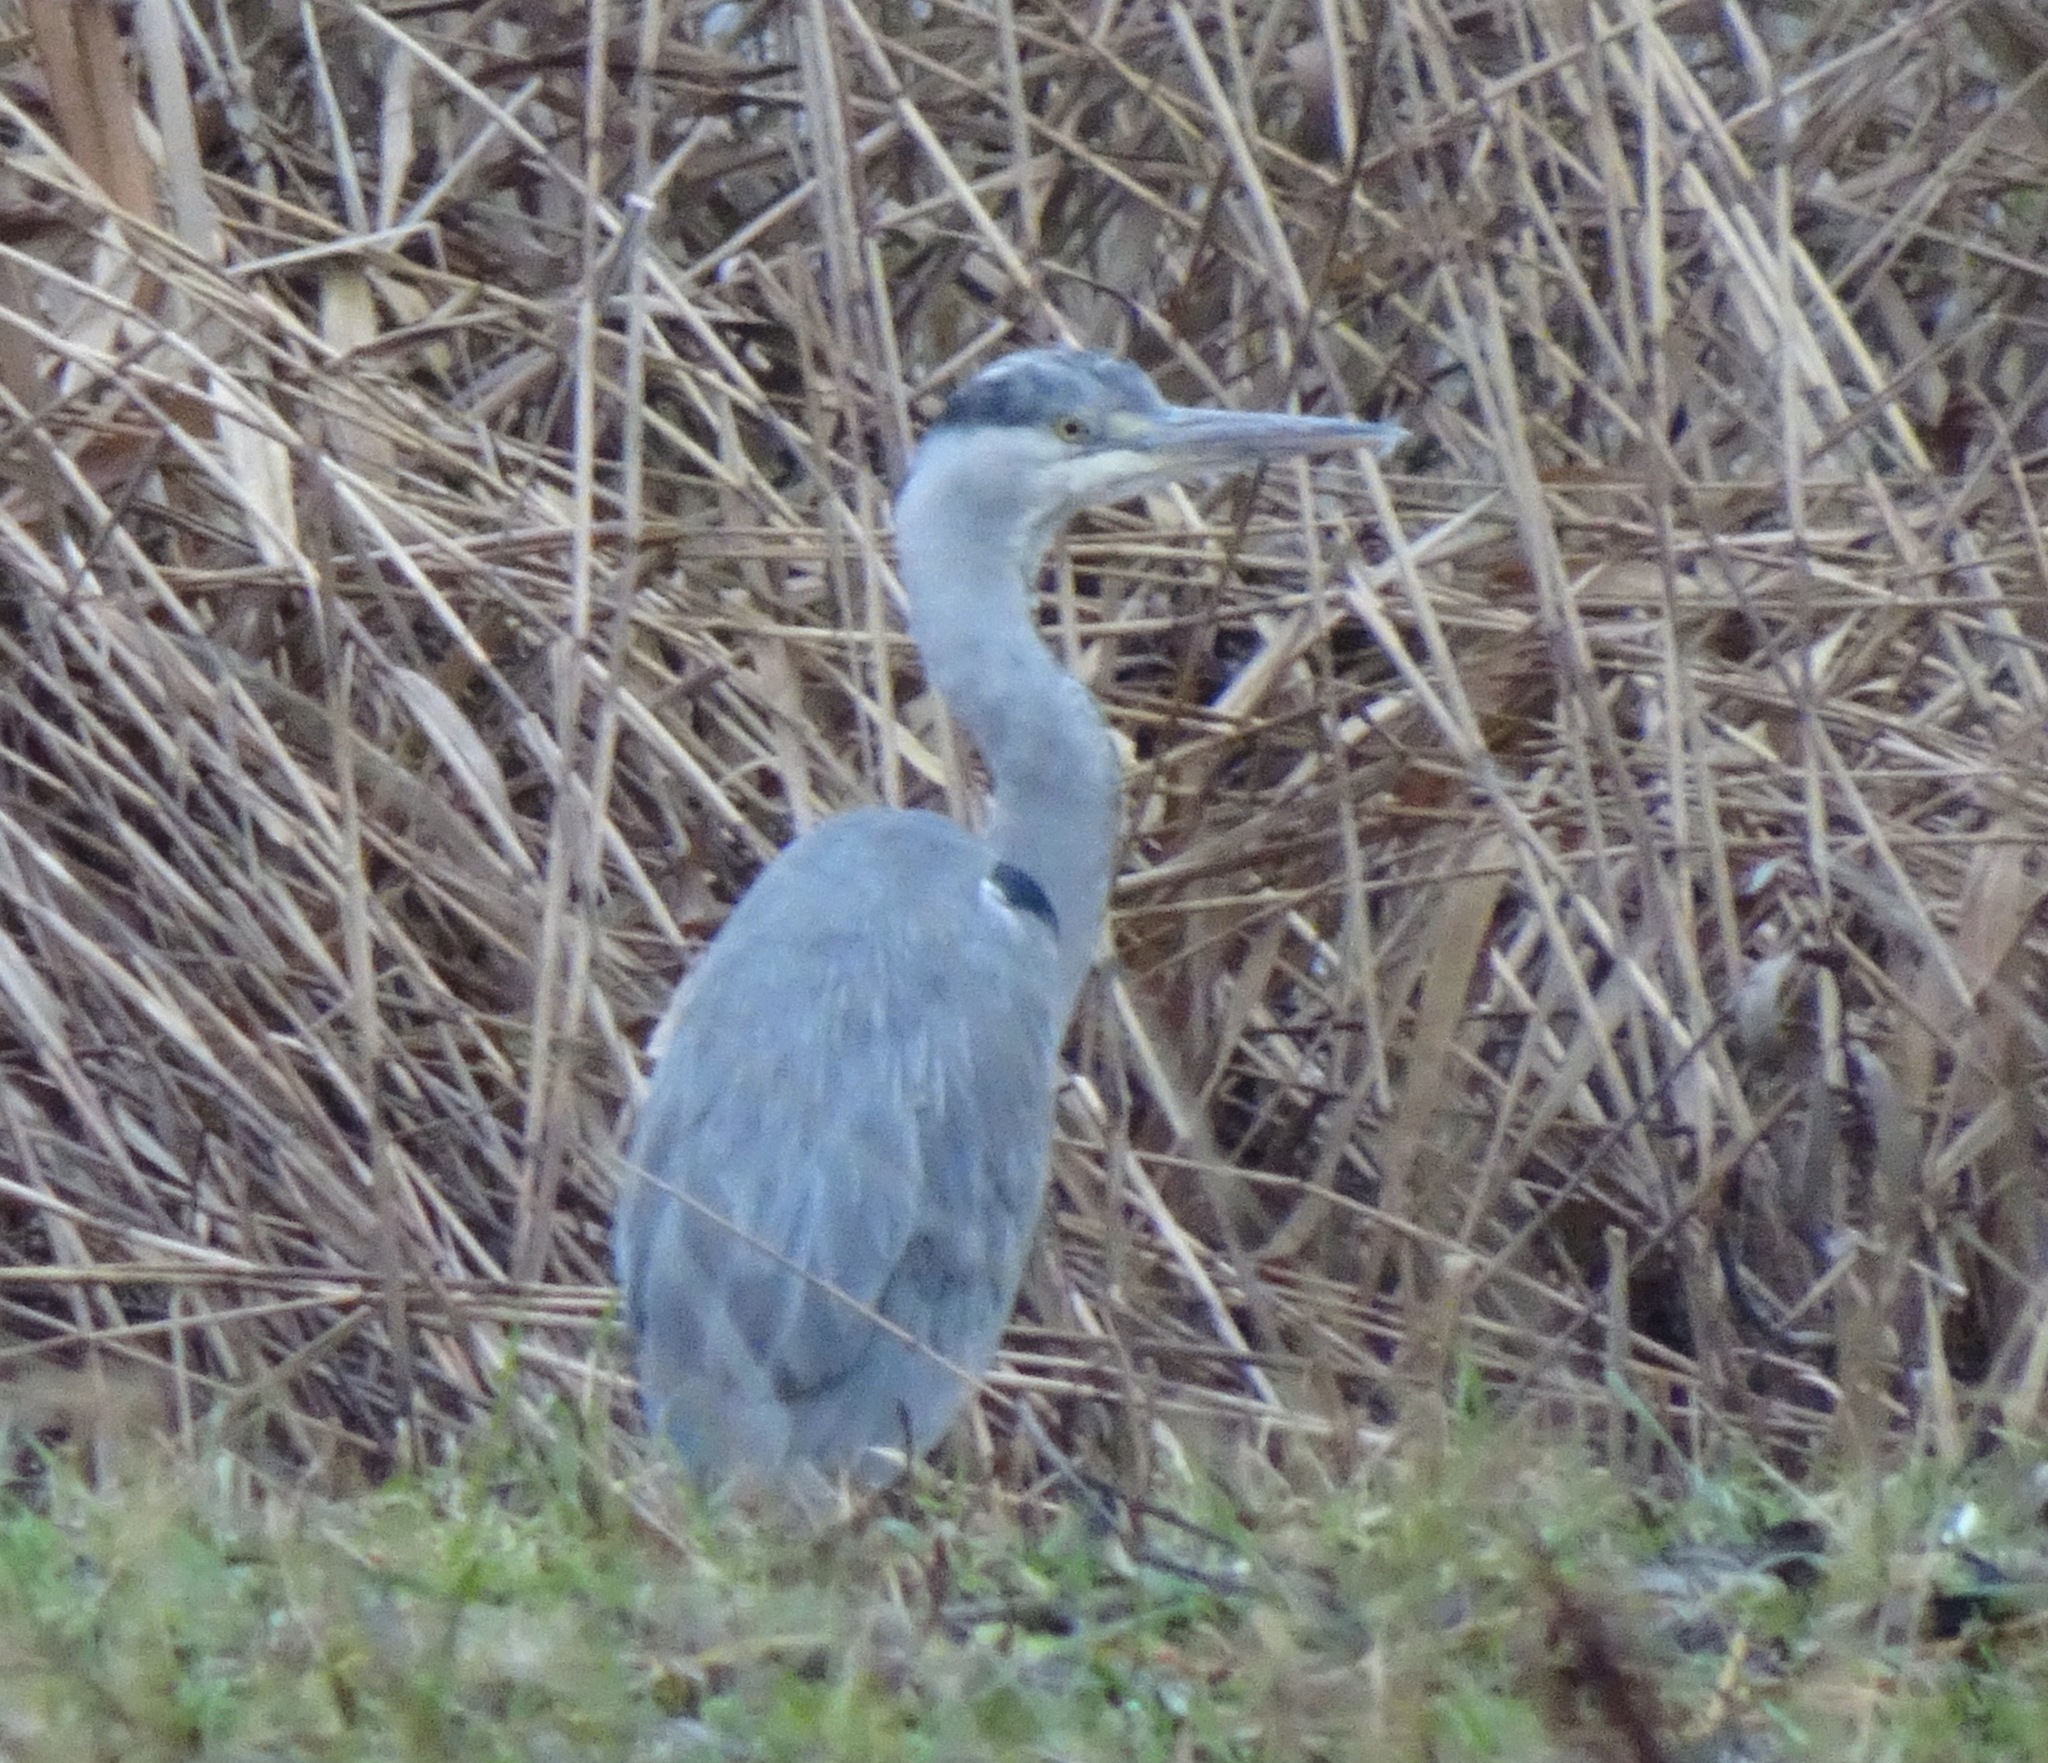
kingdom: Animalia
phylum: Chordata
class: Aves
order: Pelecaniformes
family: Ardeidae
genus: Ardea
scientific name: Ardea cinerea
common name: Grey heron
